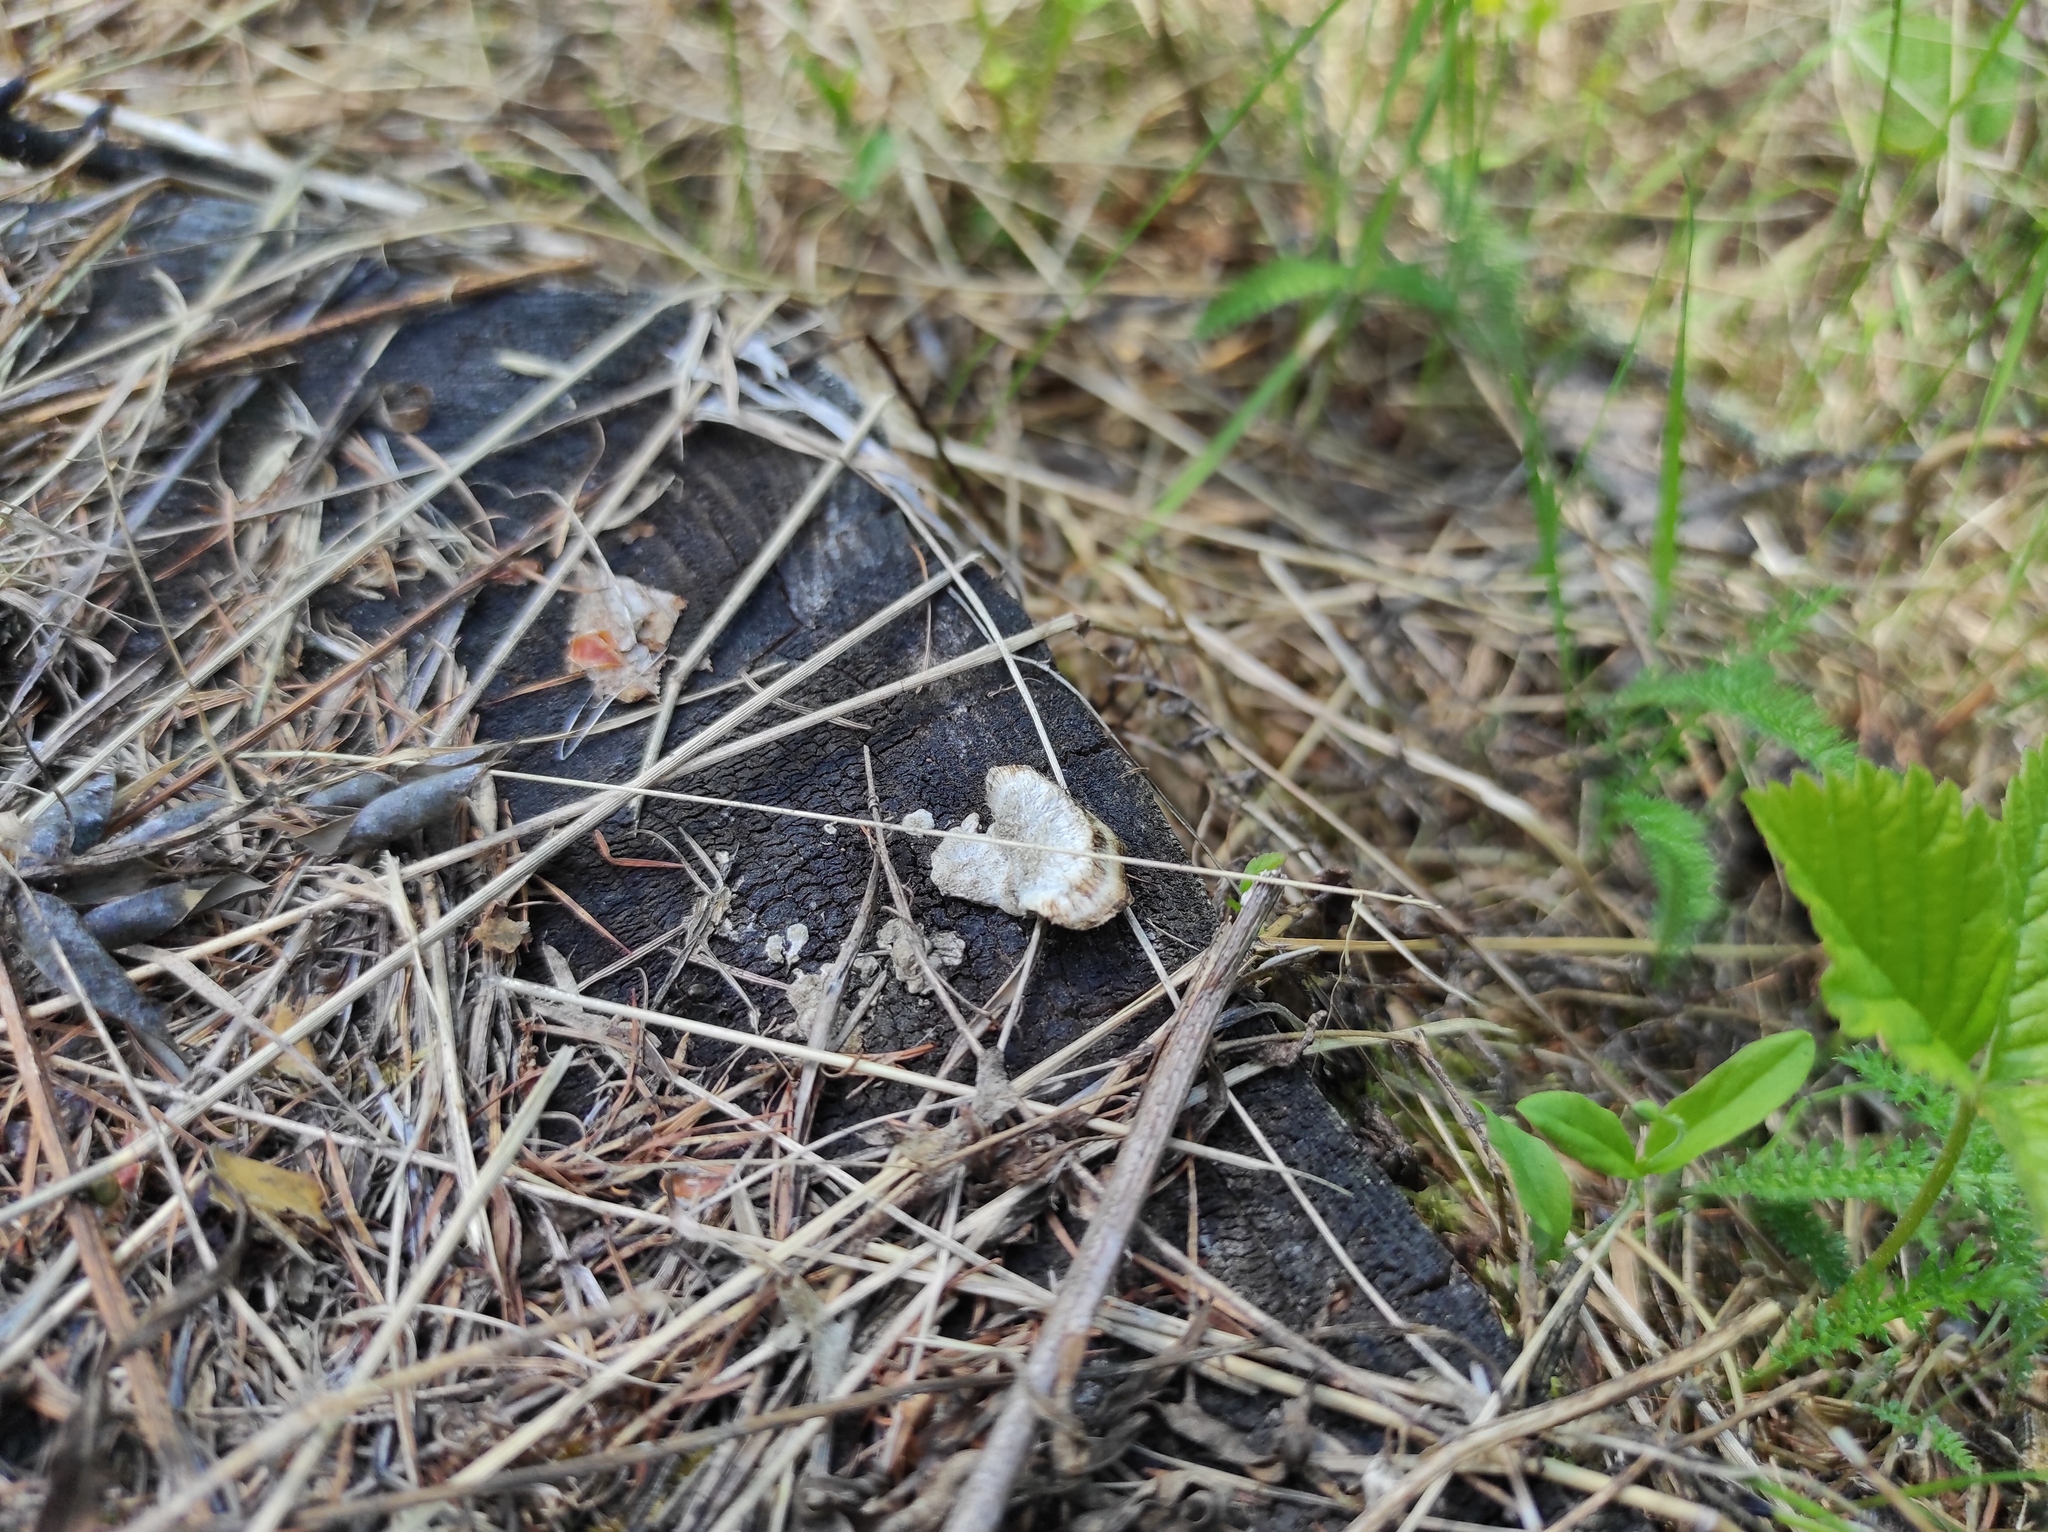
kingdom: Plantae
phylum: Tracheophyta
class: Magnoliopsida
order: Rosales
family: Rosaceae
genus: Rubus
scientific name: Rubus saxatilis
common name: Stone bramble
